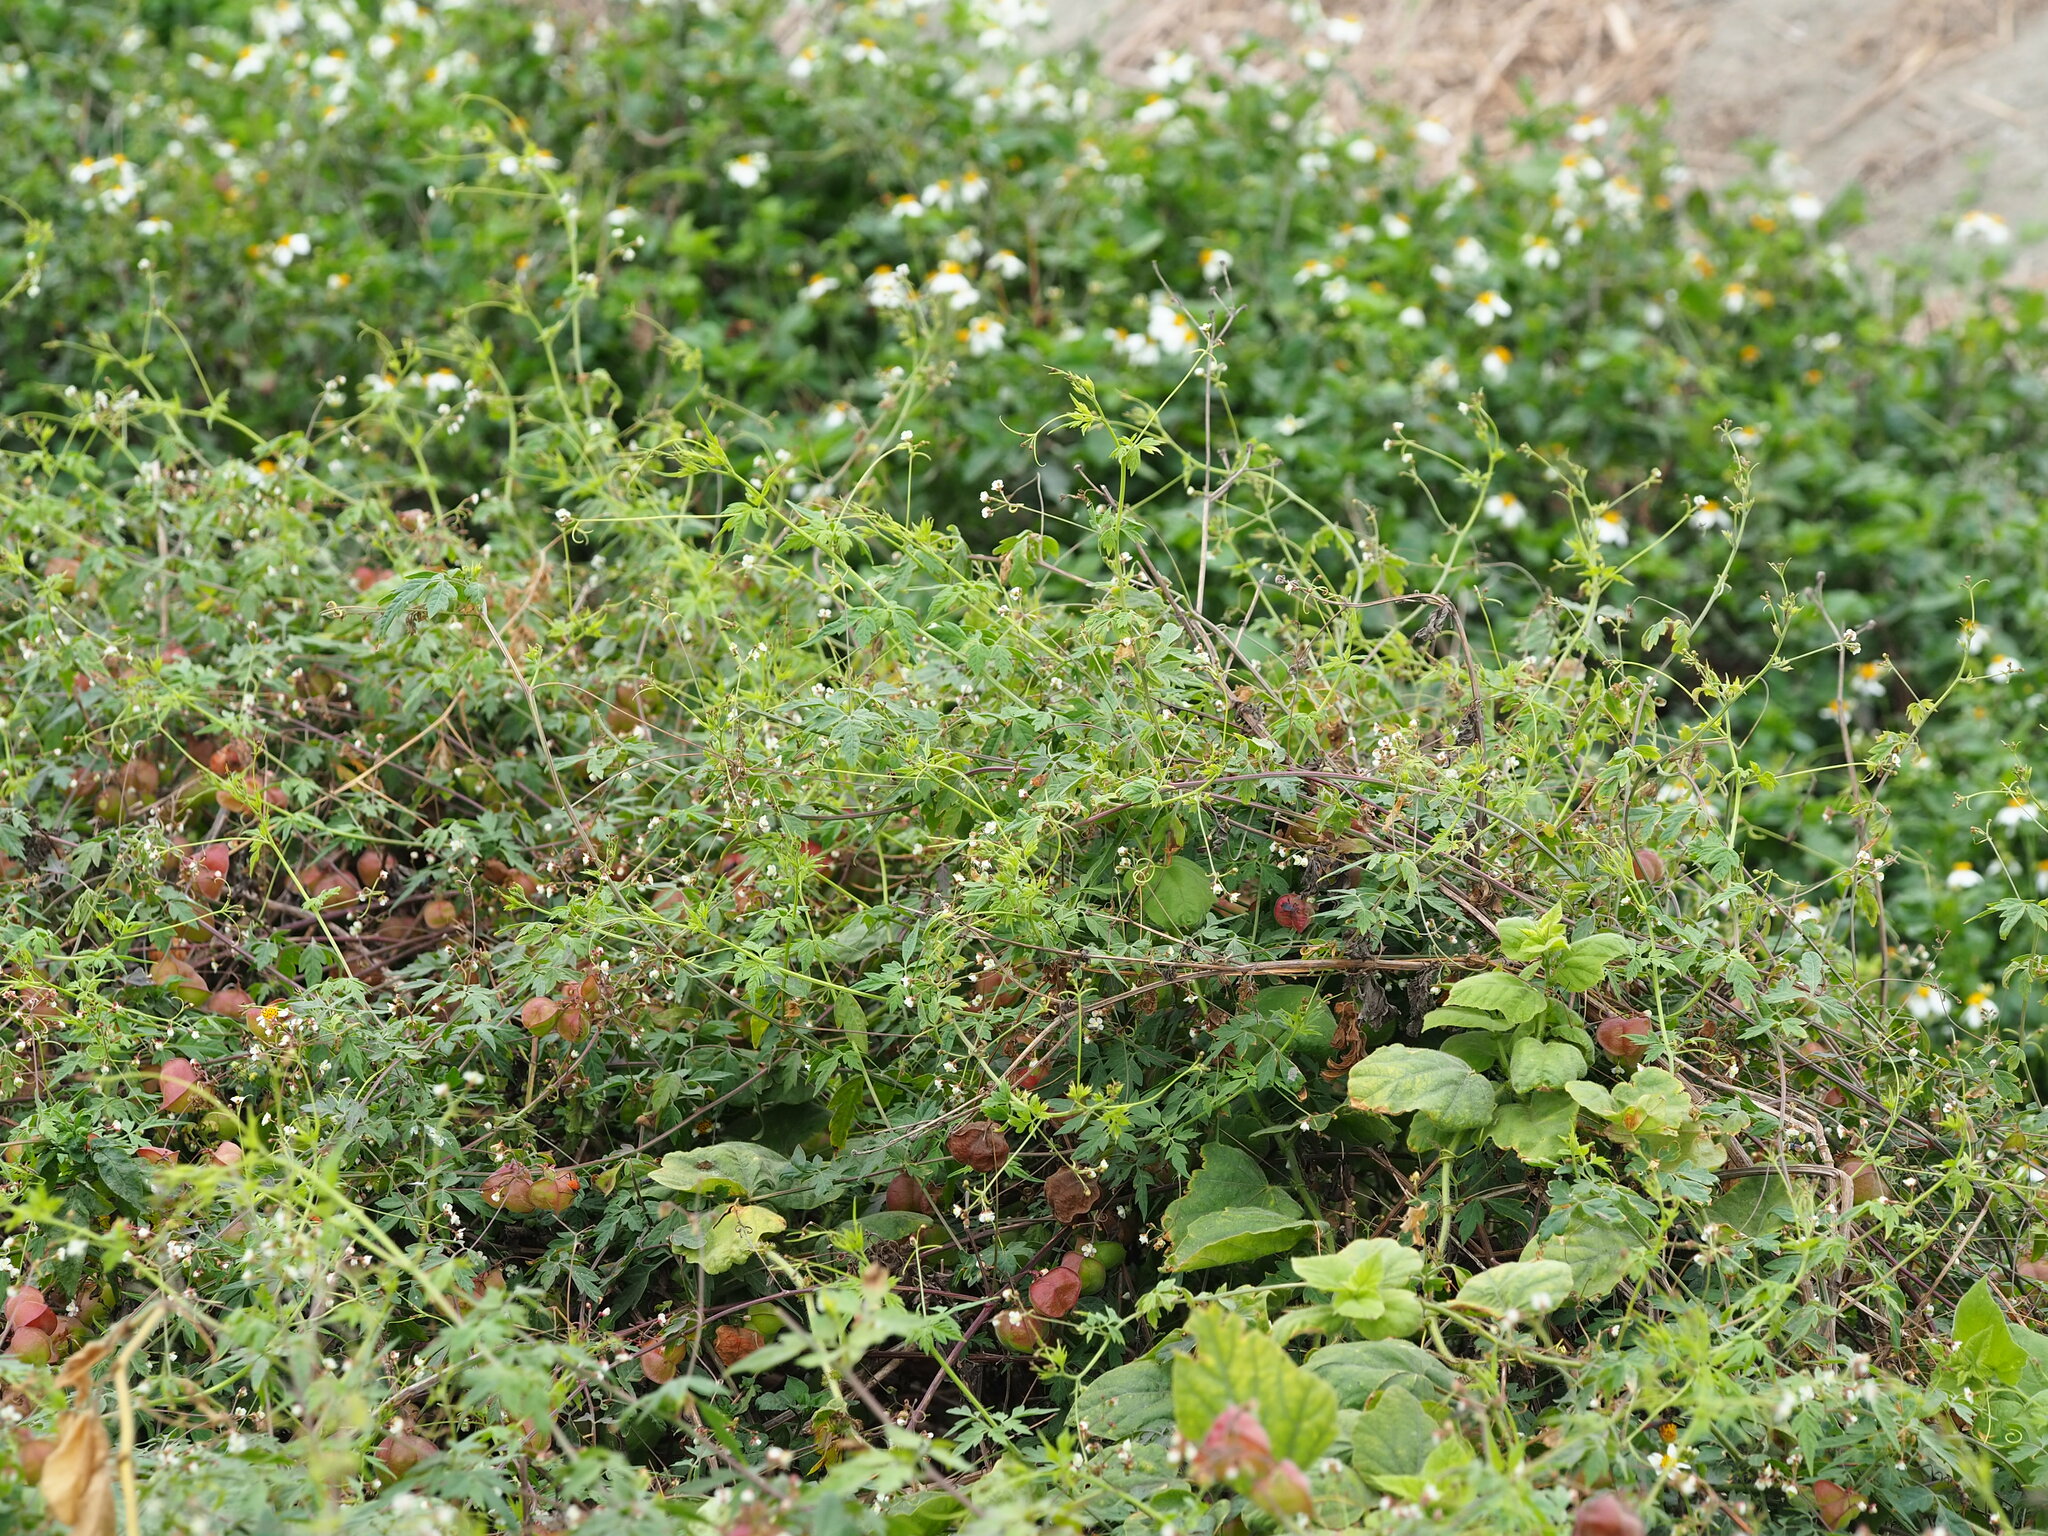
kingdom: Plantae
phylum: Tracheophyta
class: Magnoliopsida
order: Sapindales
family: Sapindaceae
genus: Cardiospermum
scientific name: Cardiospermum halicacabum
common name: Balloon vine
